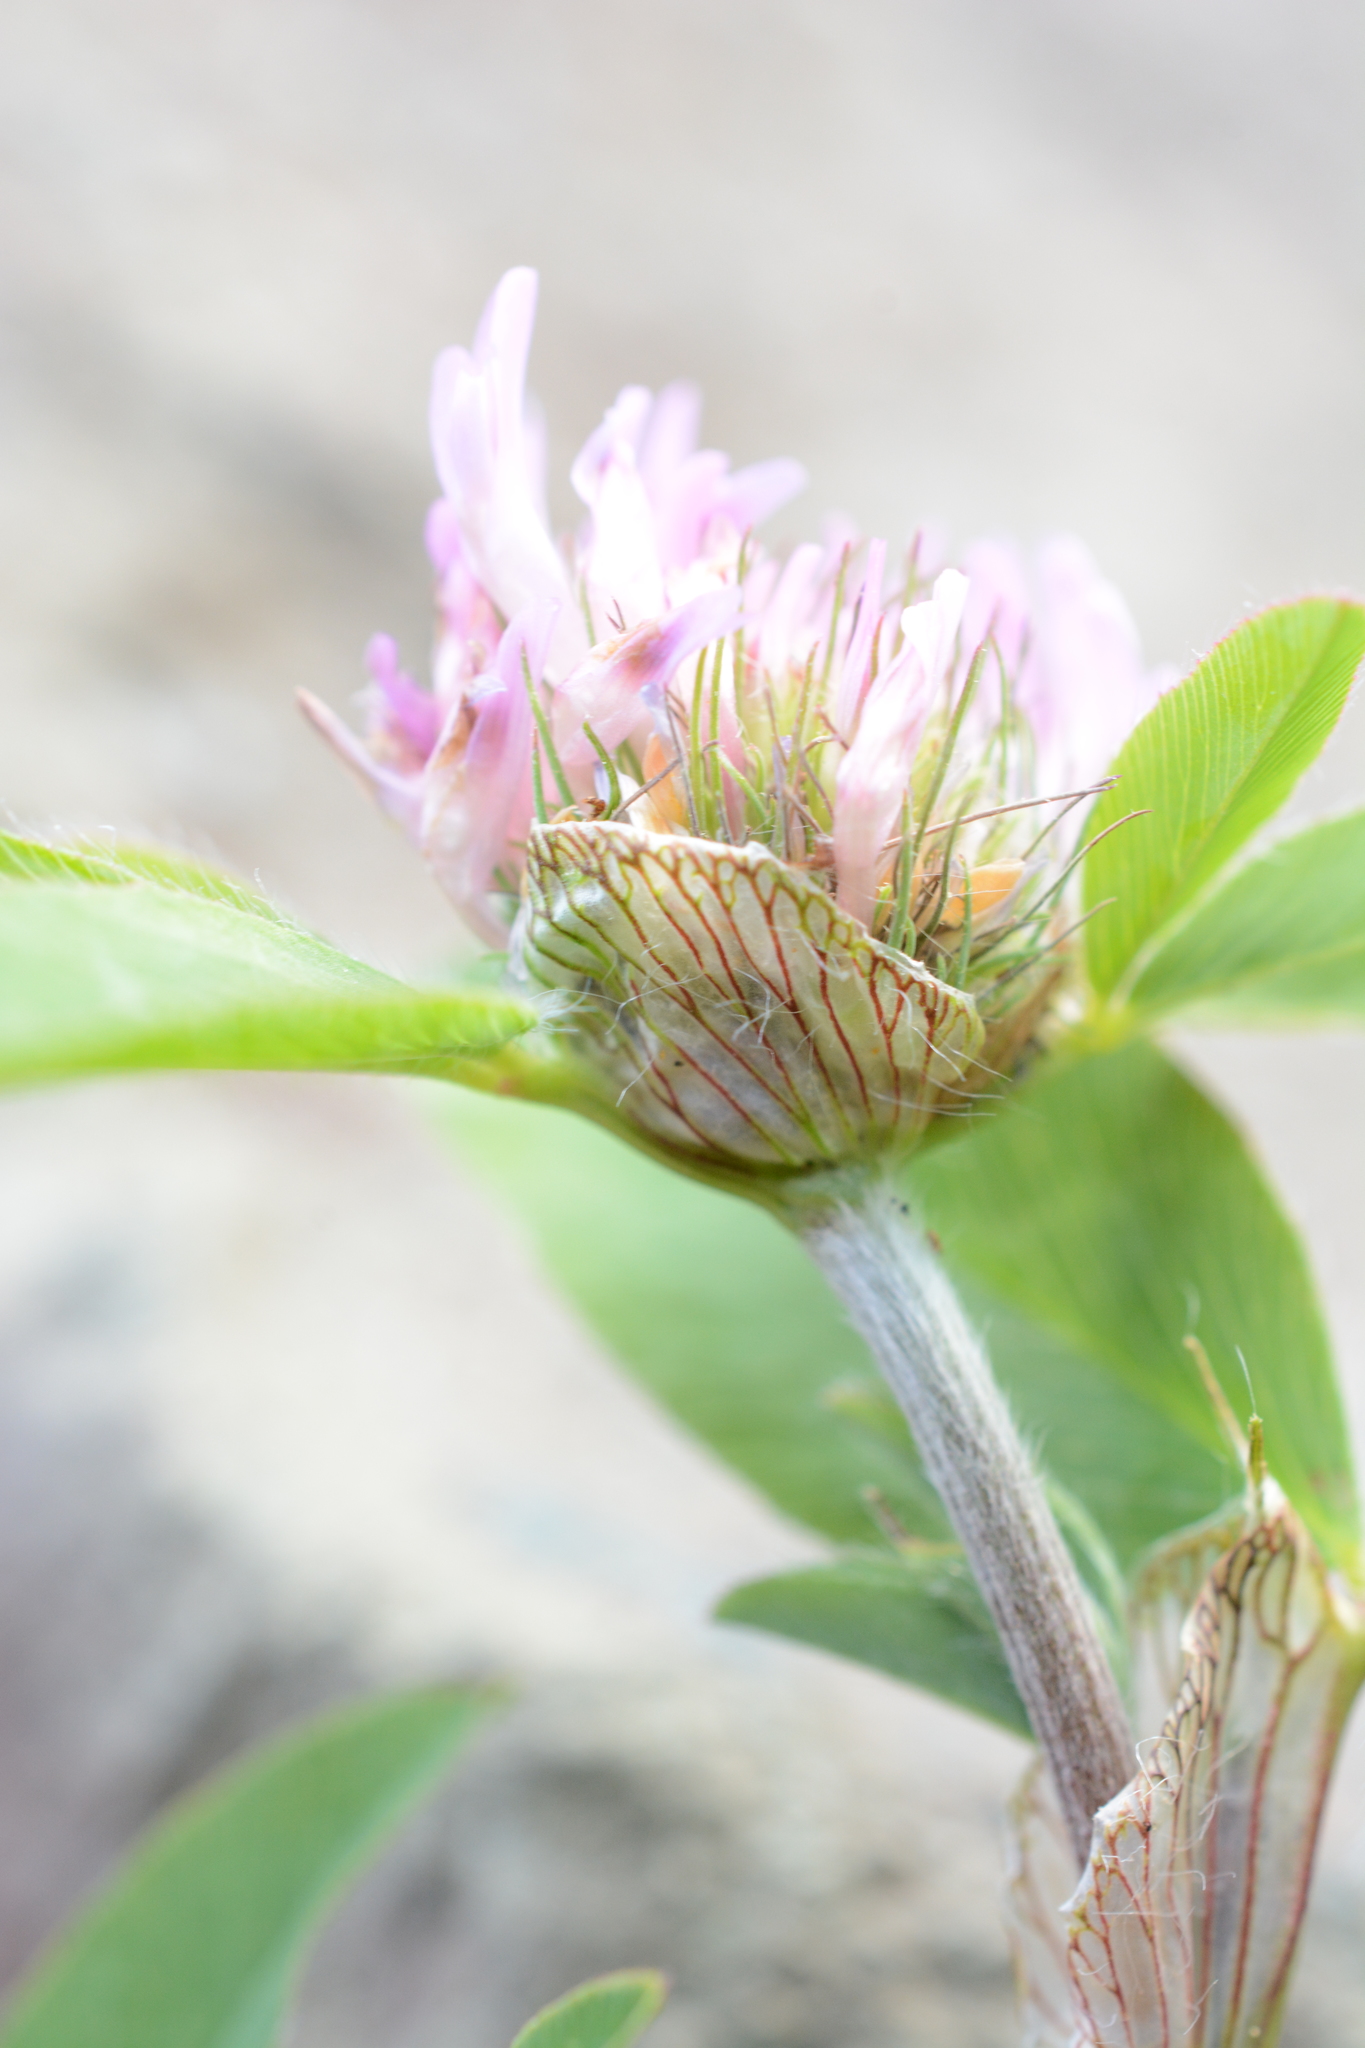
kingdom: Plantae
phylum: Tracheophyta
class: Magnoliopsida
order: Fabales
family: Fabaceae
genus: Trifolium
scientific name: Trifolium pratense
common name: Red clover
